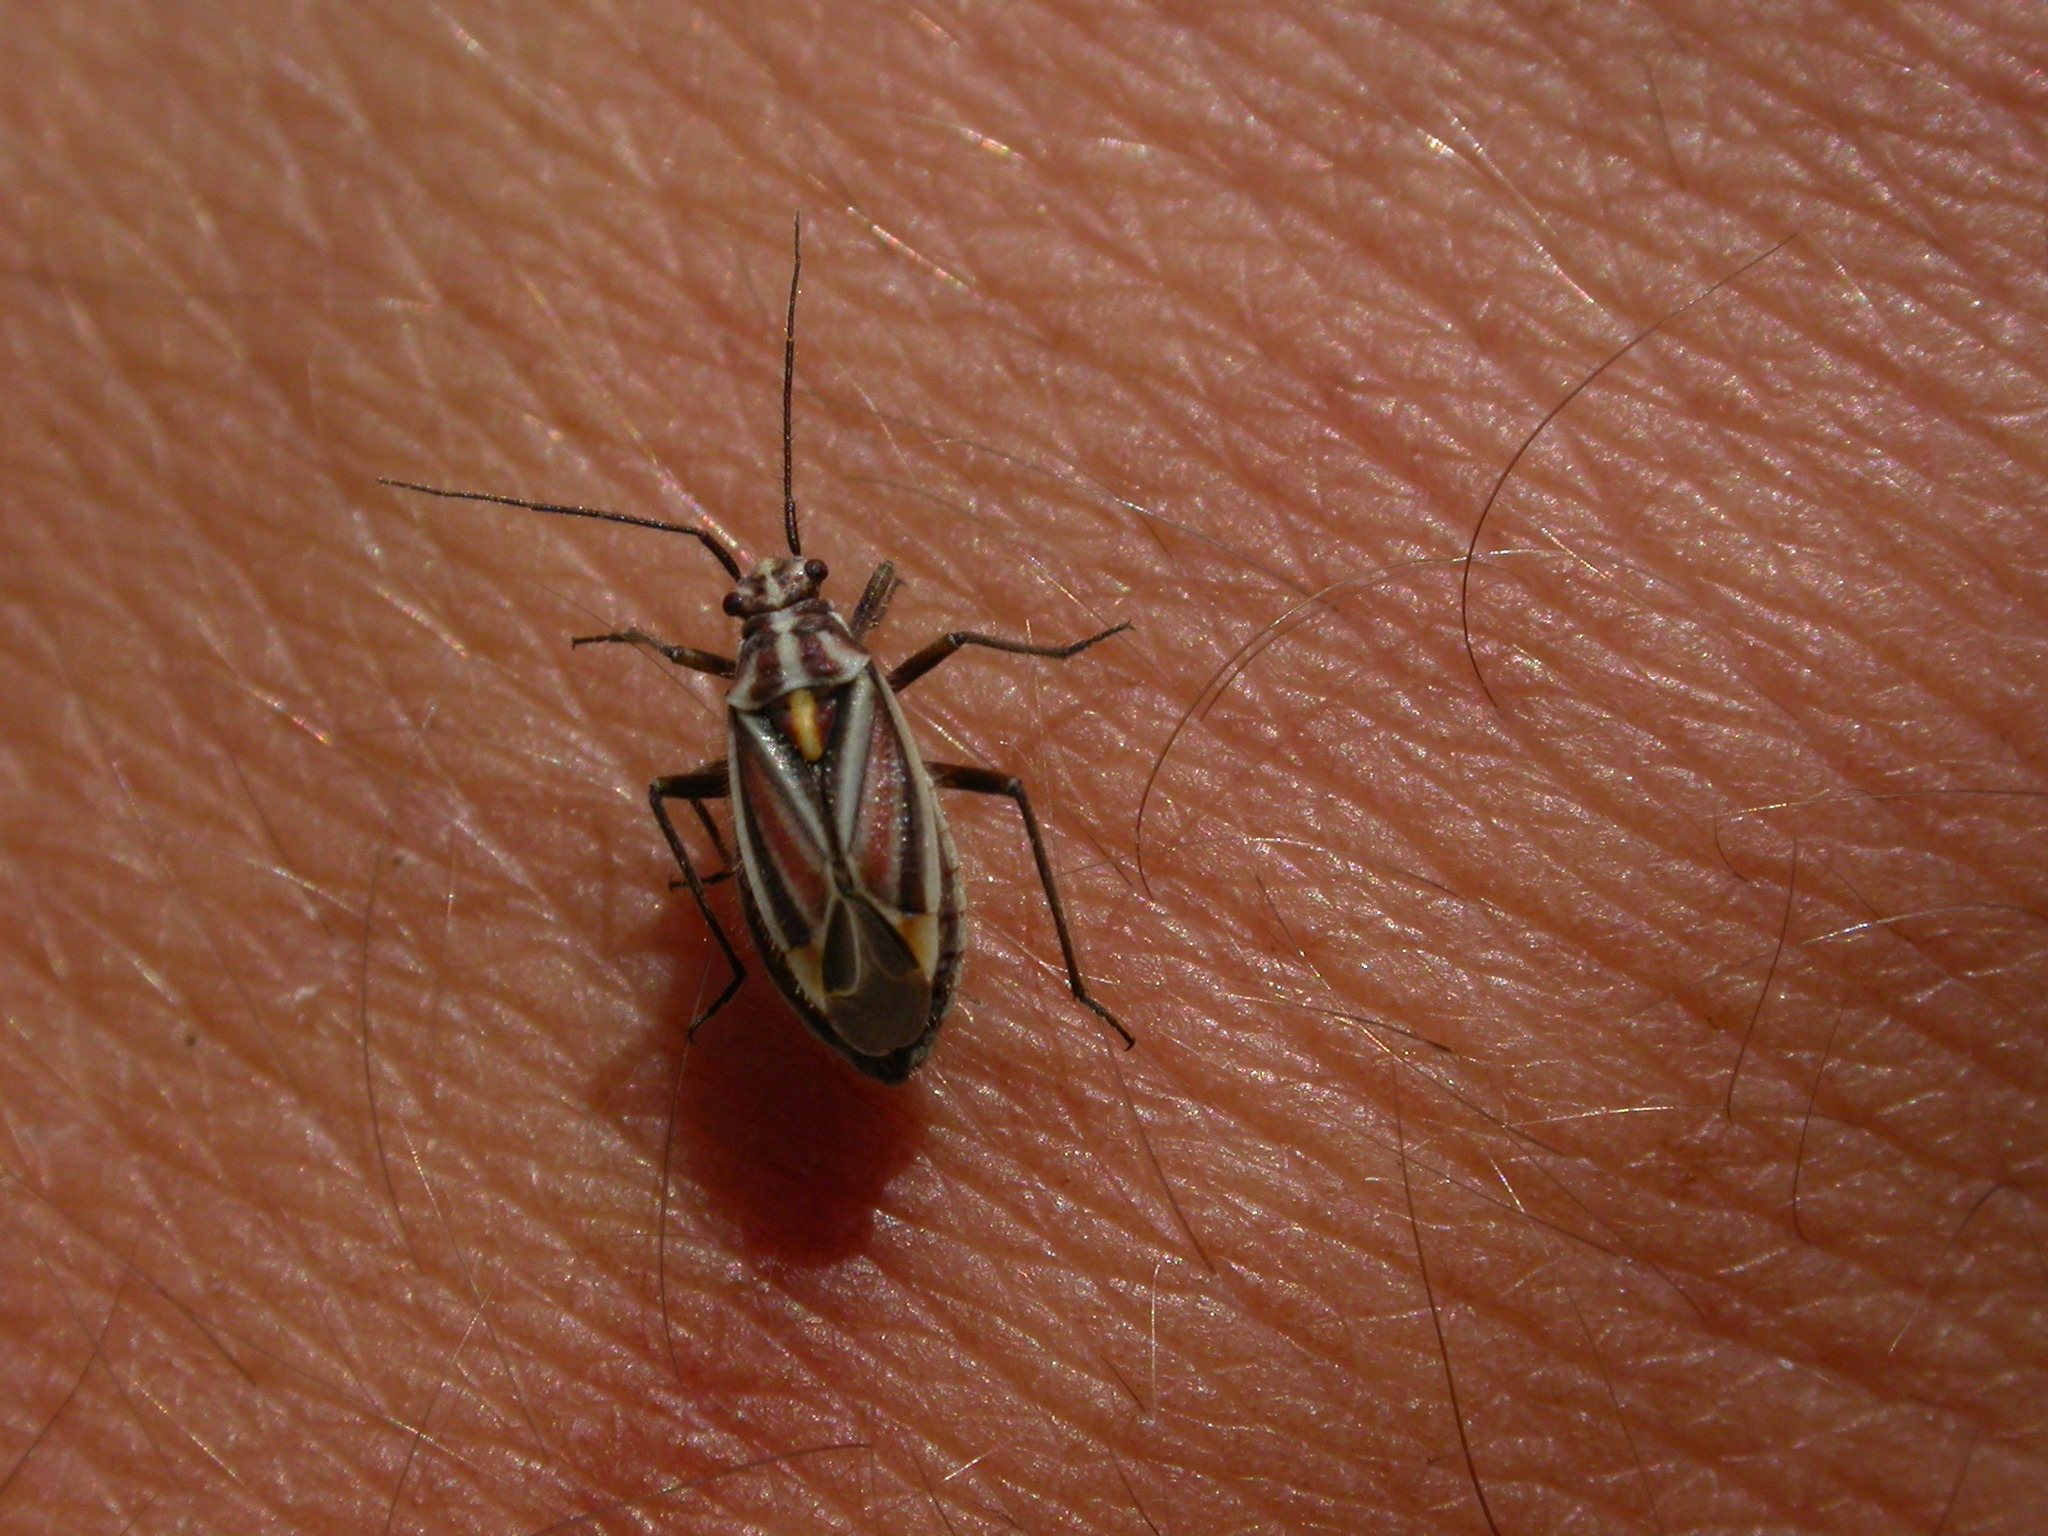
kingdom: Animalia
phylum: Arthropoda
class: Insecta
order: Hemiptera
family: Miridae
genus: Horistus
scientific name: Horistus orientalis
